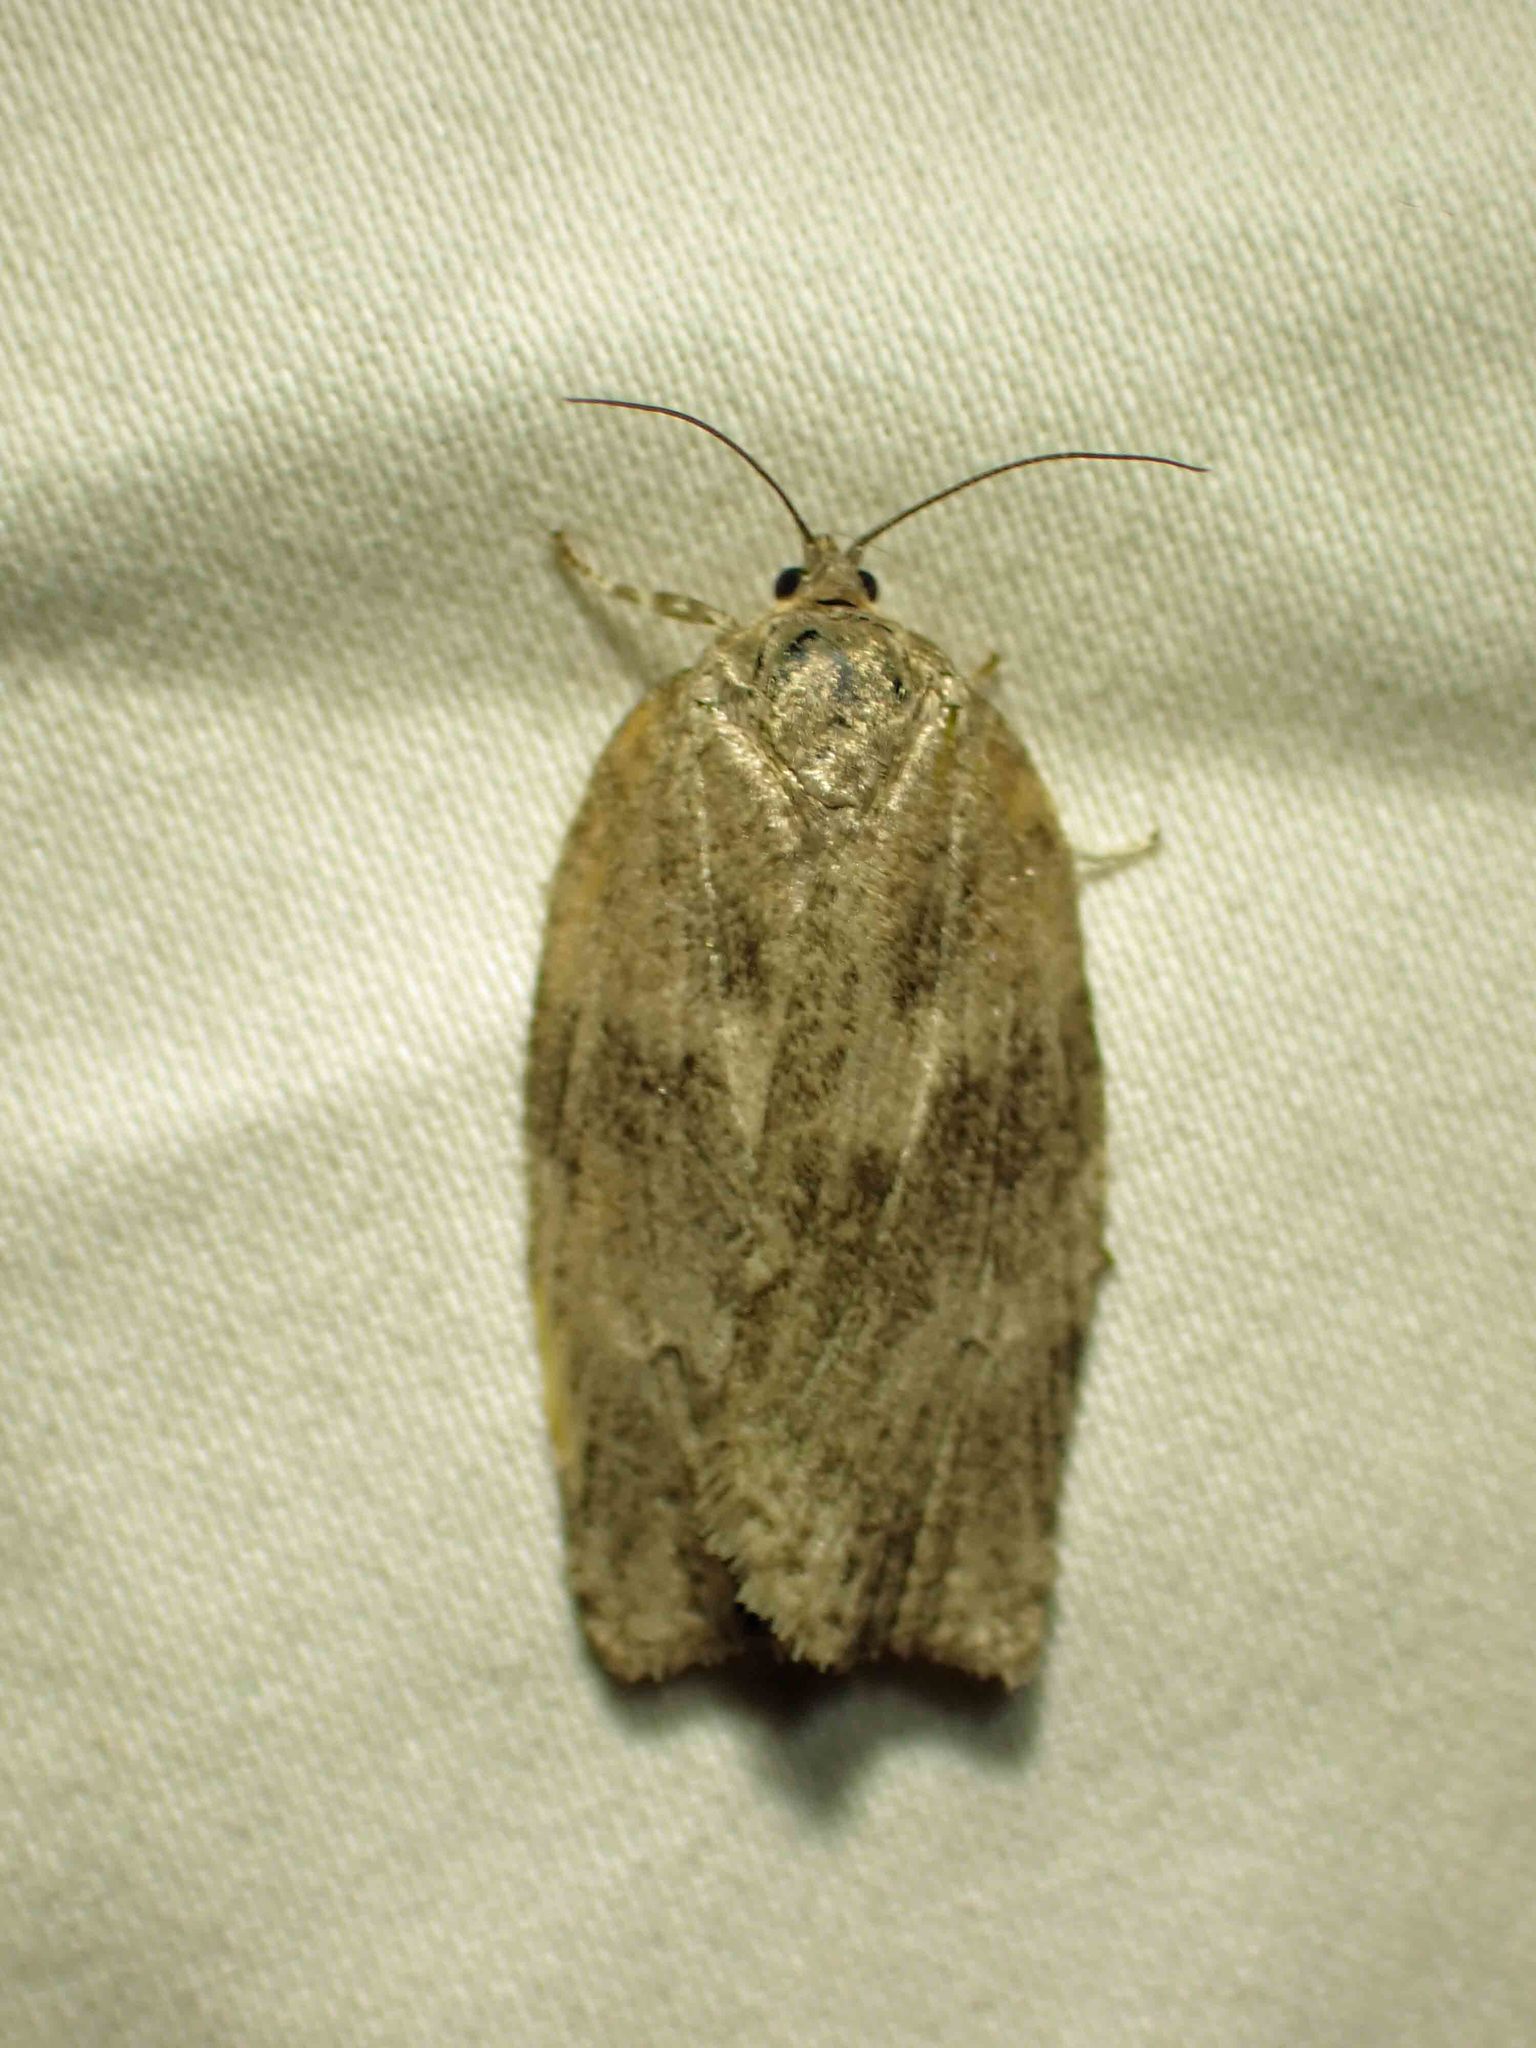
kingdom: Animalia
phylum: Arthropoda
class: Insecta
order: Lepidoptera
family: Tortricidae
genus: Choristoneura
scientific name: Choristoneura conflictana
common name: Large aspen tortrix
